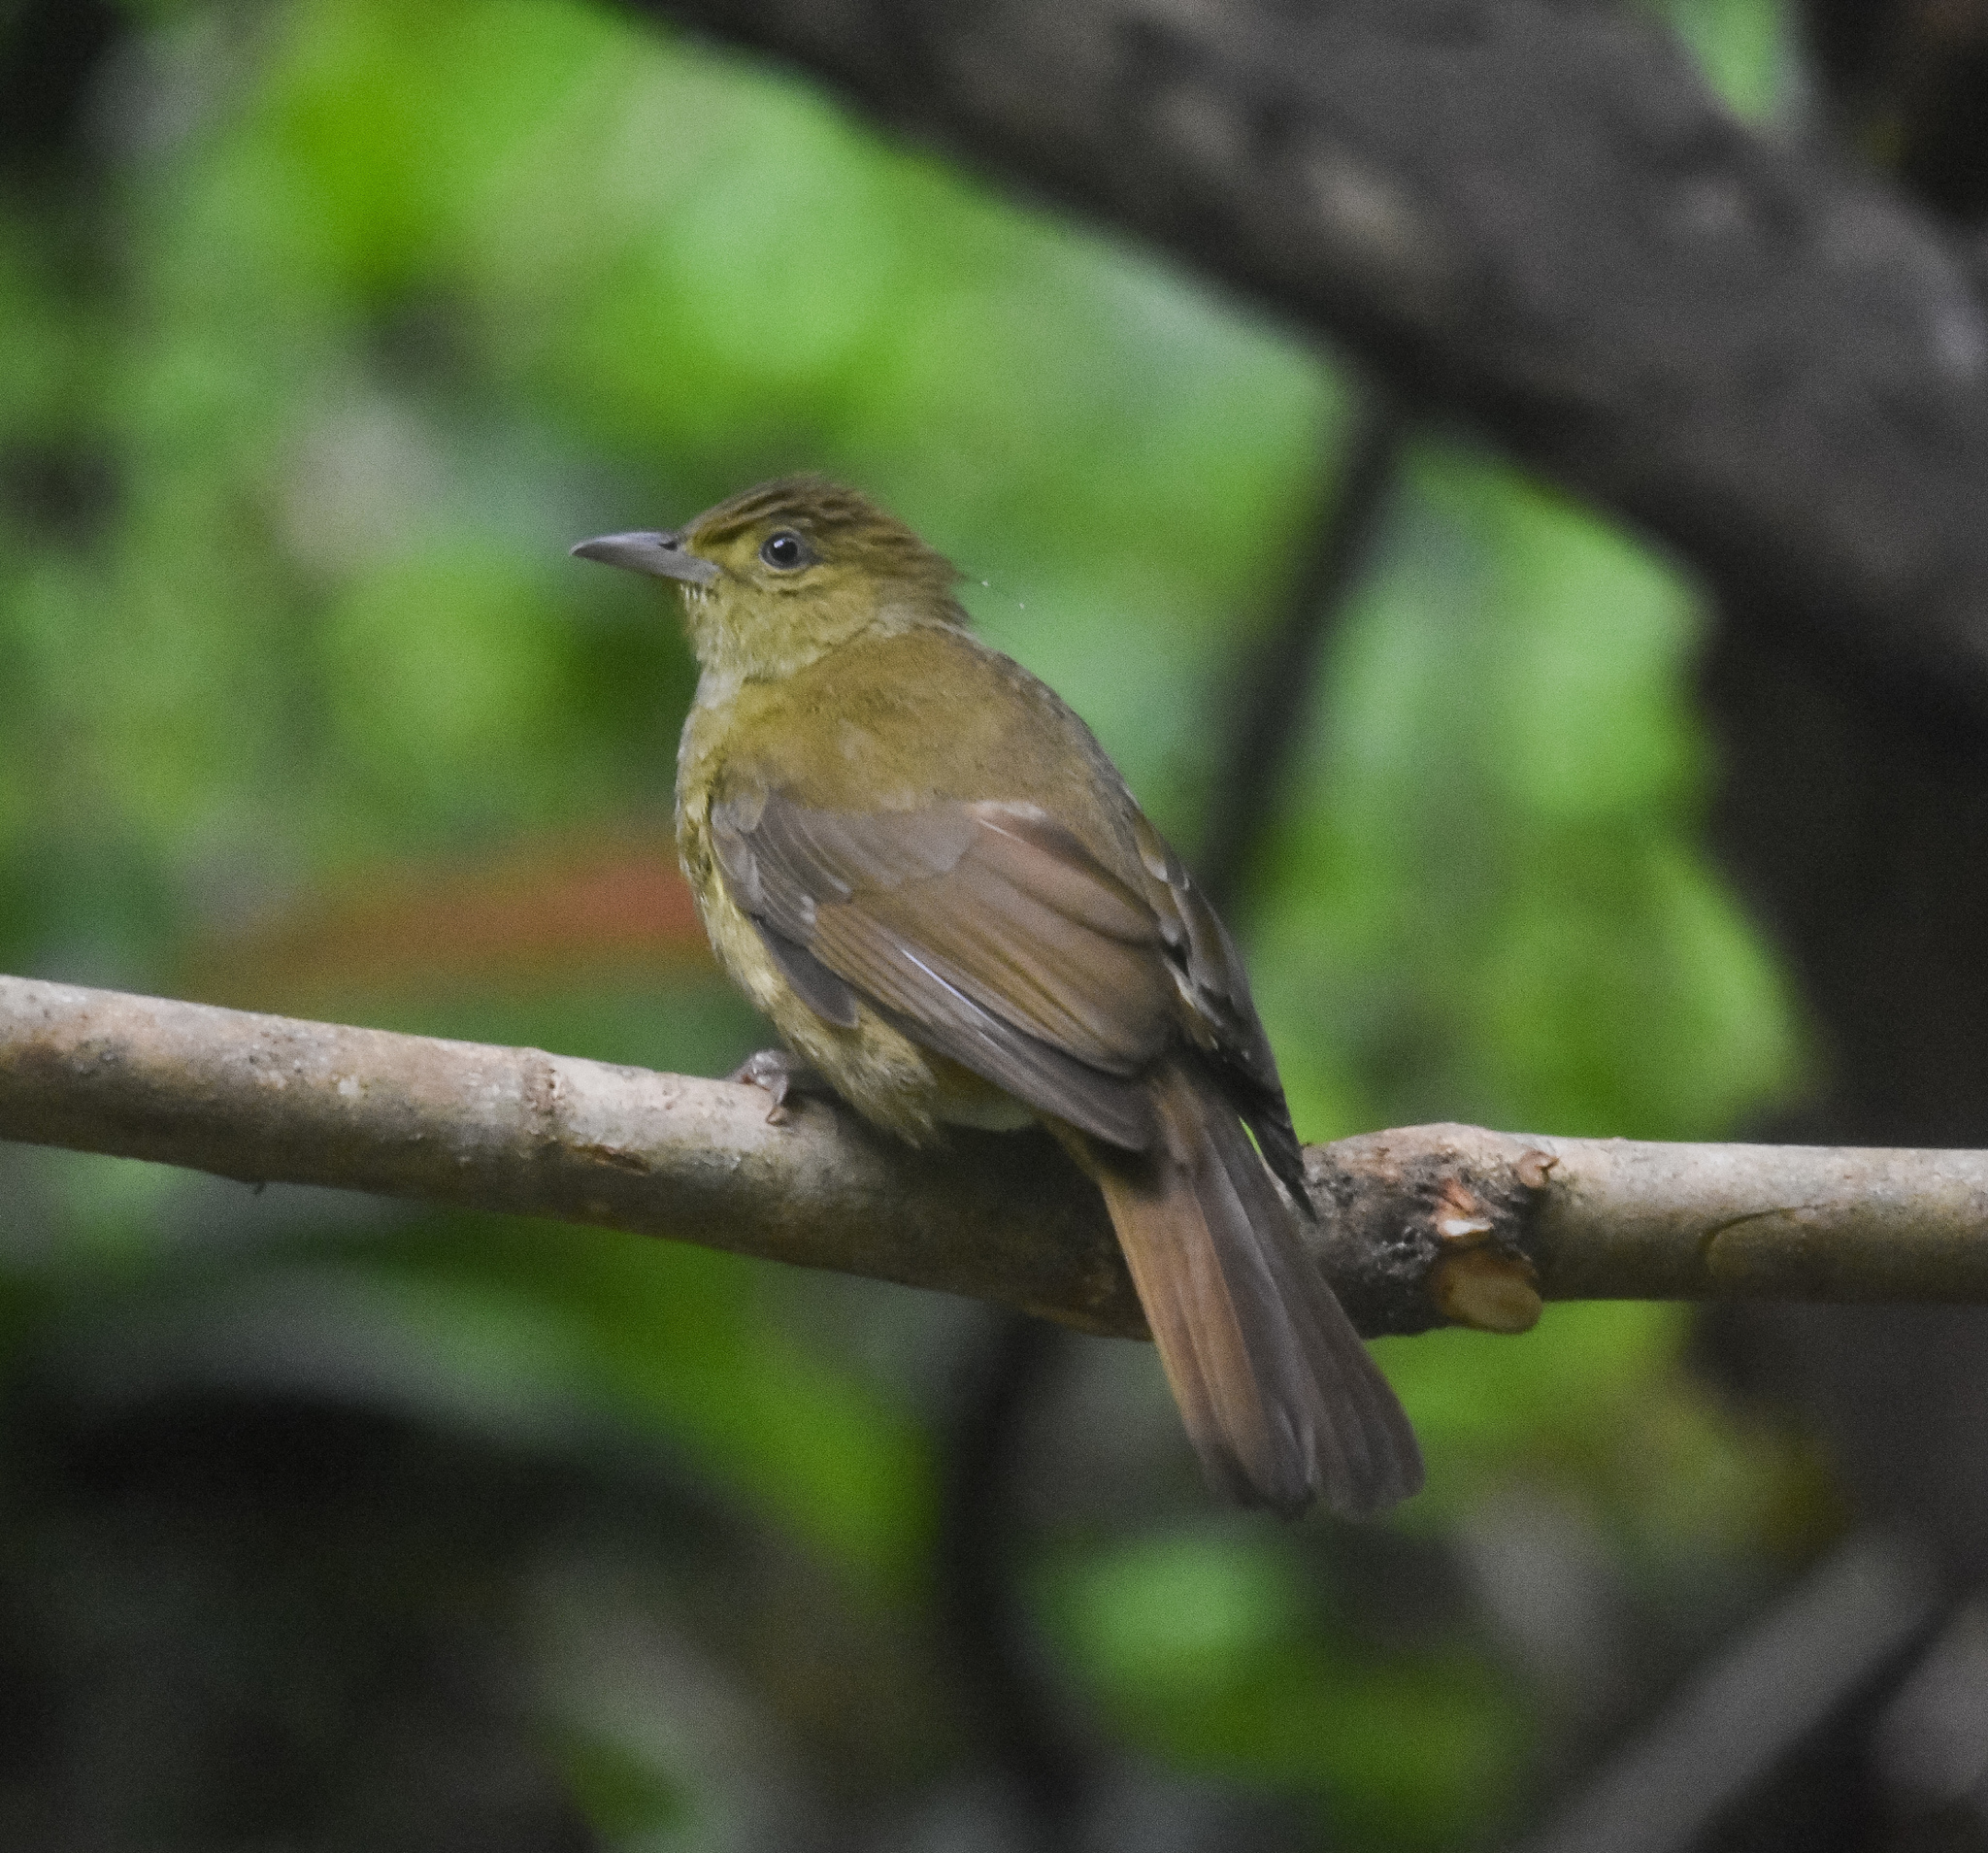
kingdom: Animalia
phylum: Chordata
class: Aves
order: Passeriformes
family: Pycnonotidae
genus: Iole
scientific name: Iole virescens
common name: Olive bulbul
